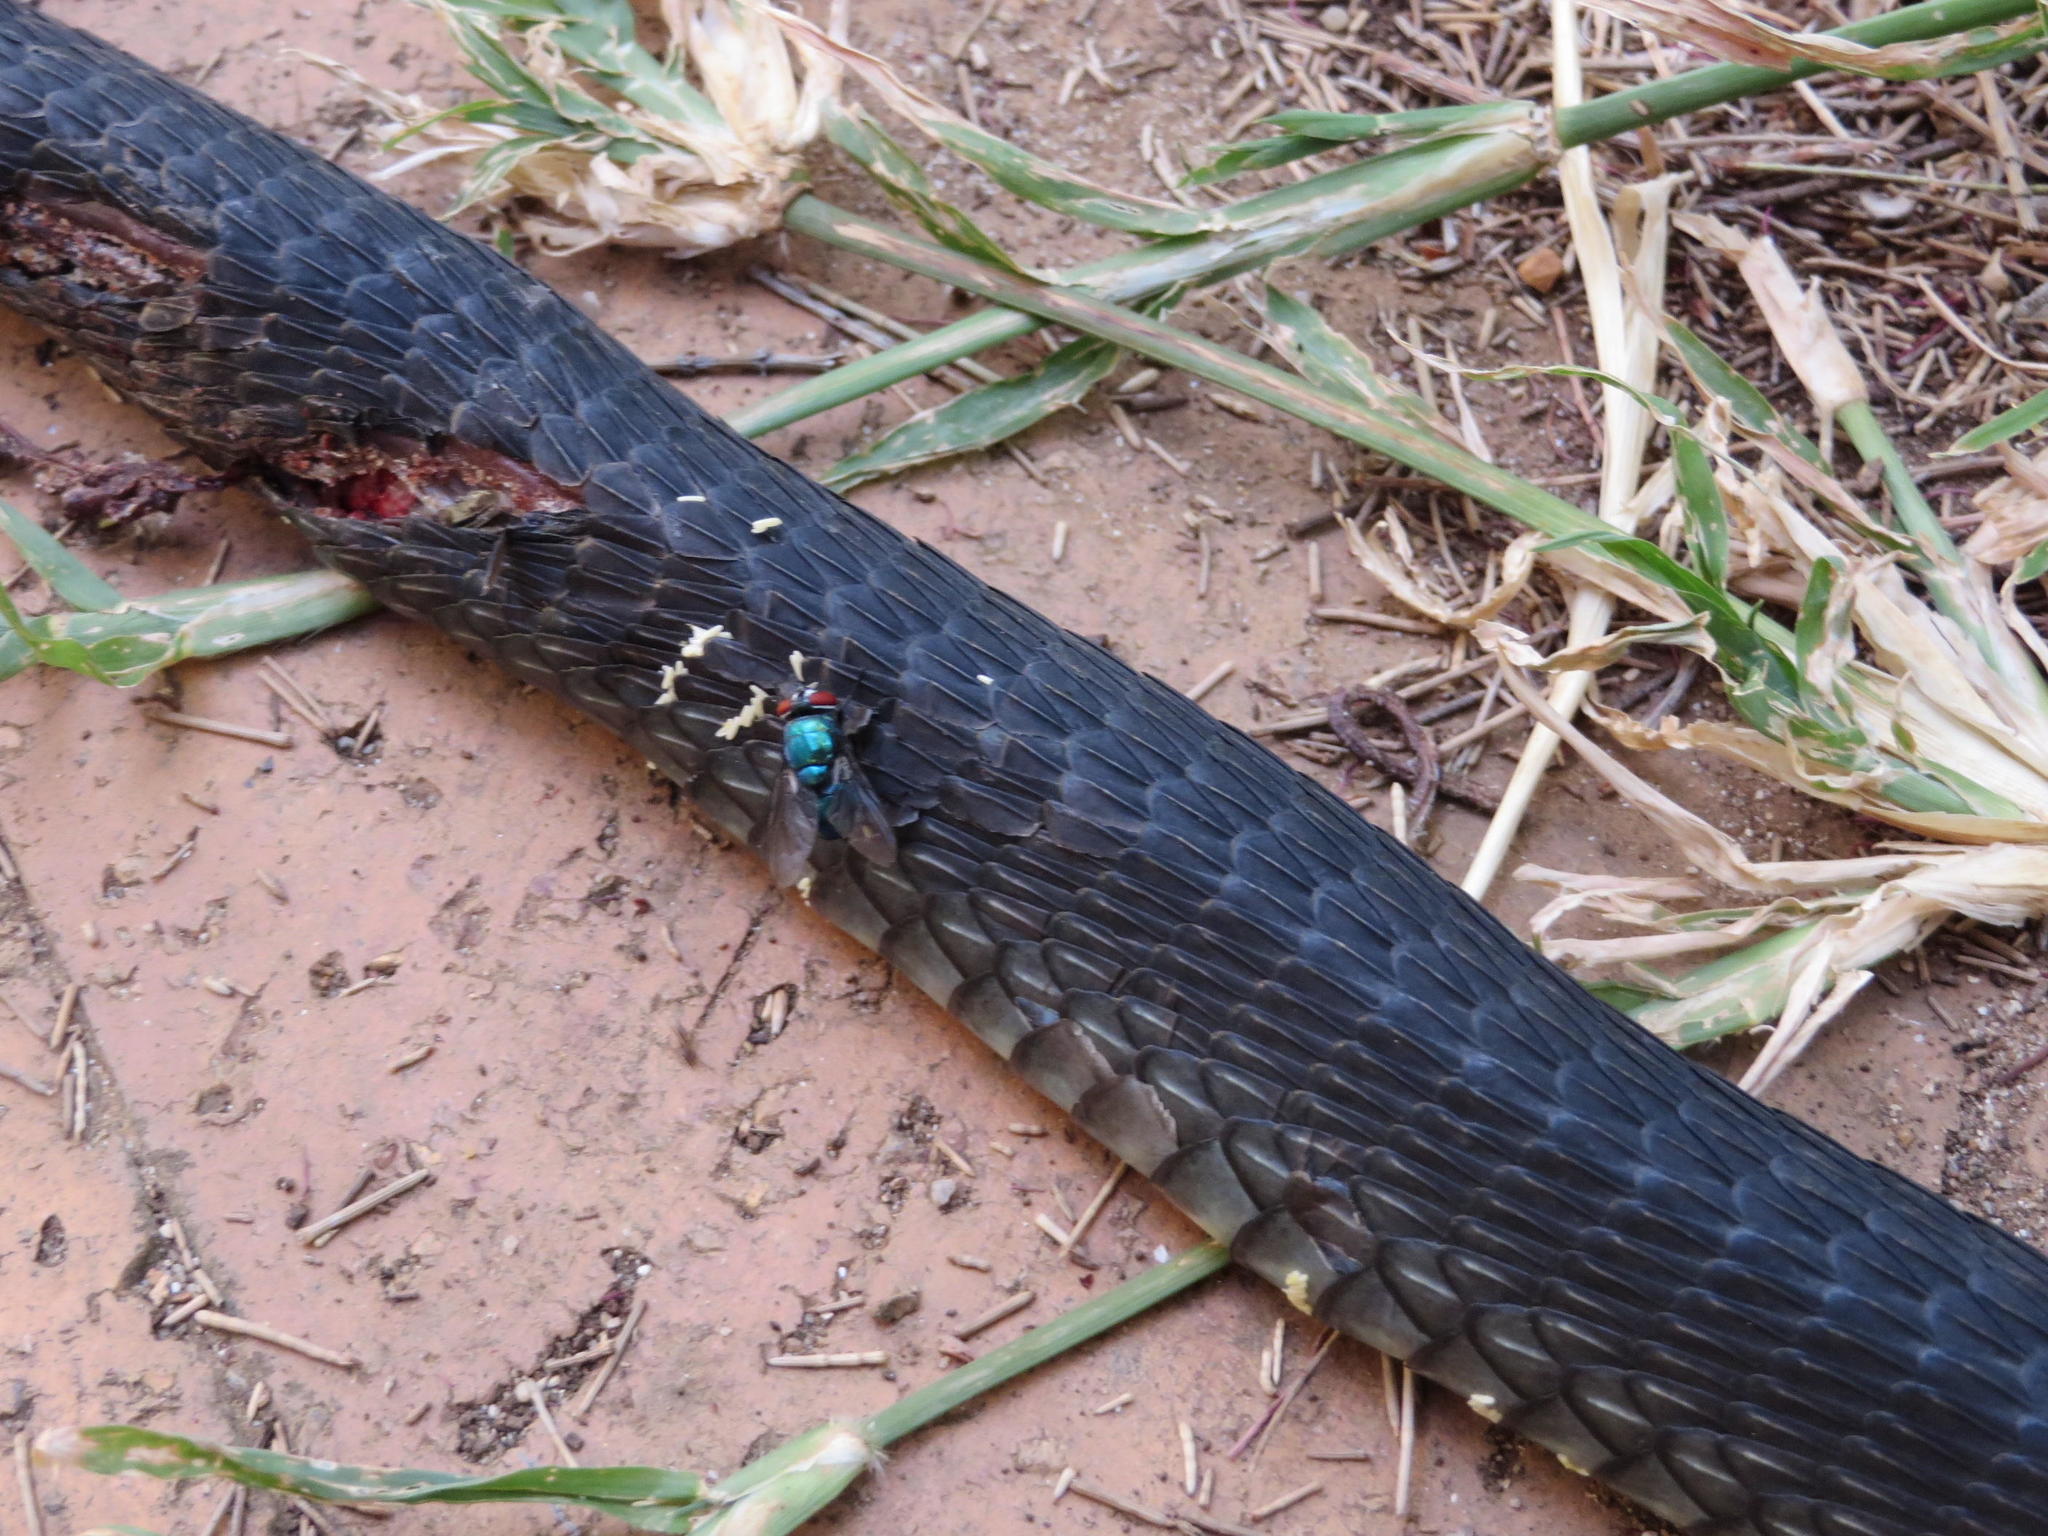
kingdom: Animalia
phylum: Chordata
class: Squamata
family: Colubridae
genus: Dispholidus
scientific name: Dispholidus typus
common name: Boomslang
